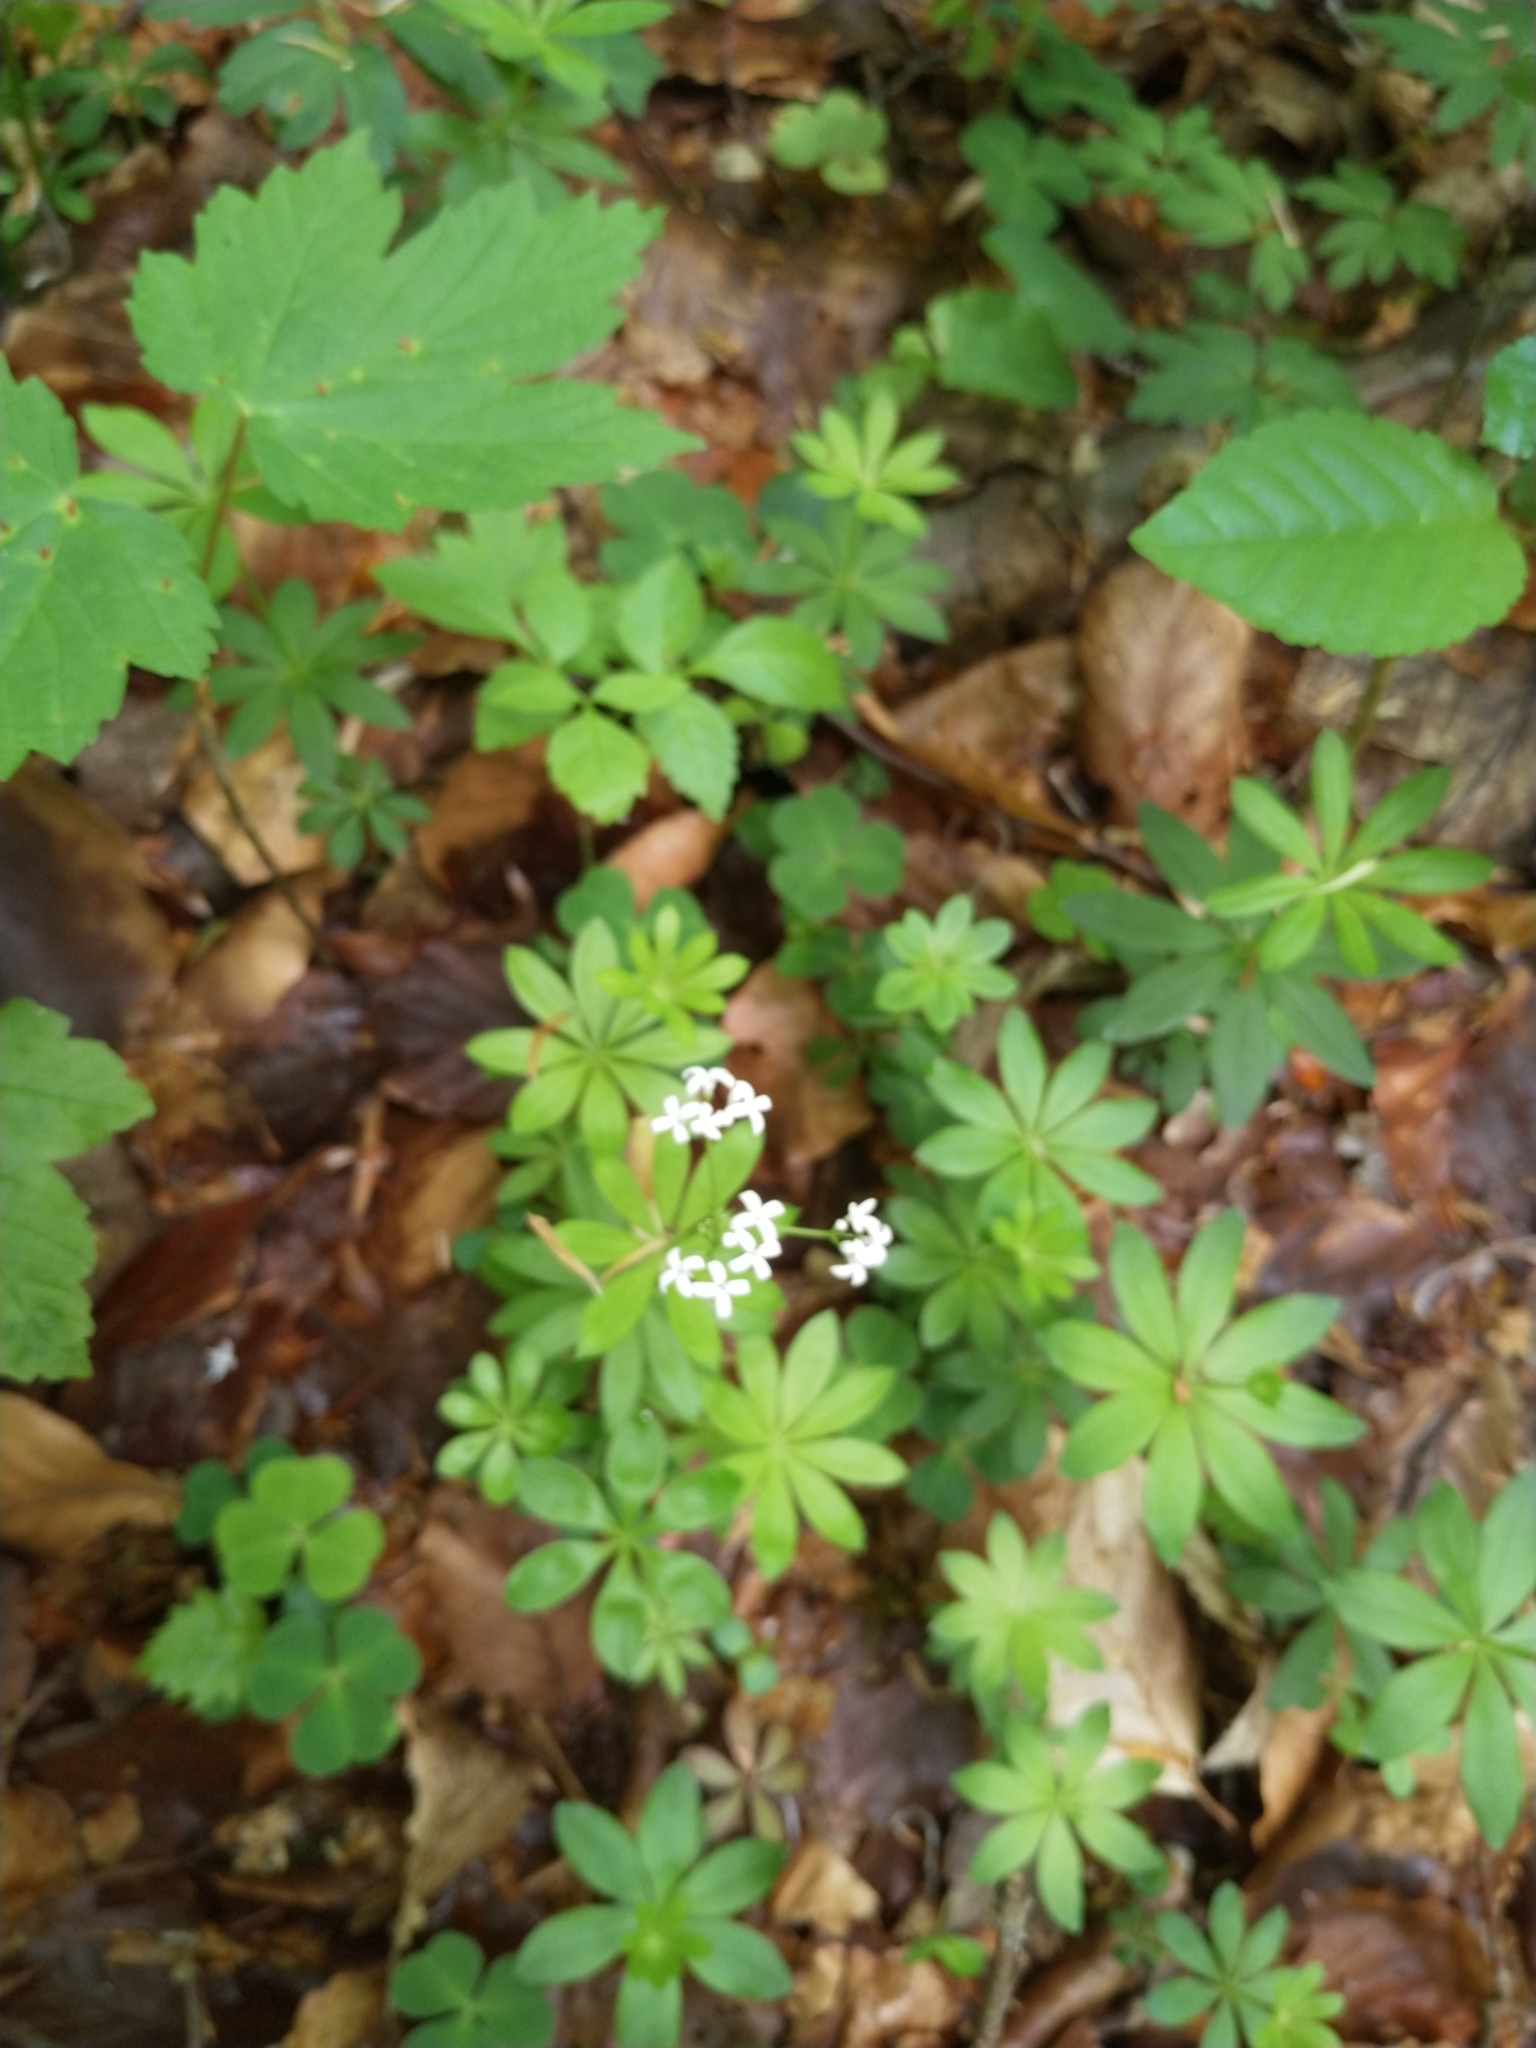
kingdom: Plantae
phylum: Tracheophyta
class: Magnoliopsida
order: Gentianales
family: Rubiaceae
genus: Galium
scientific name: Galium odoratum
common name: Sweet woodruff
